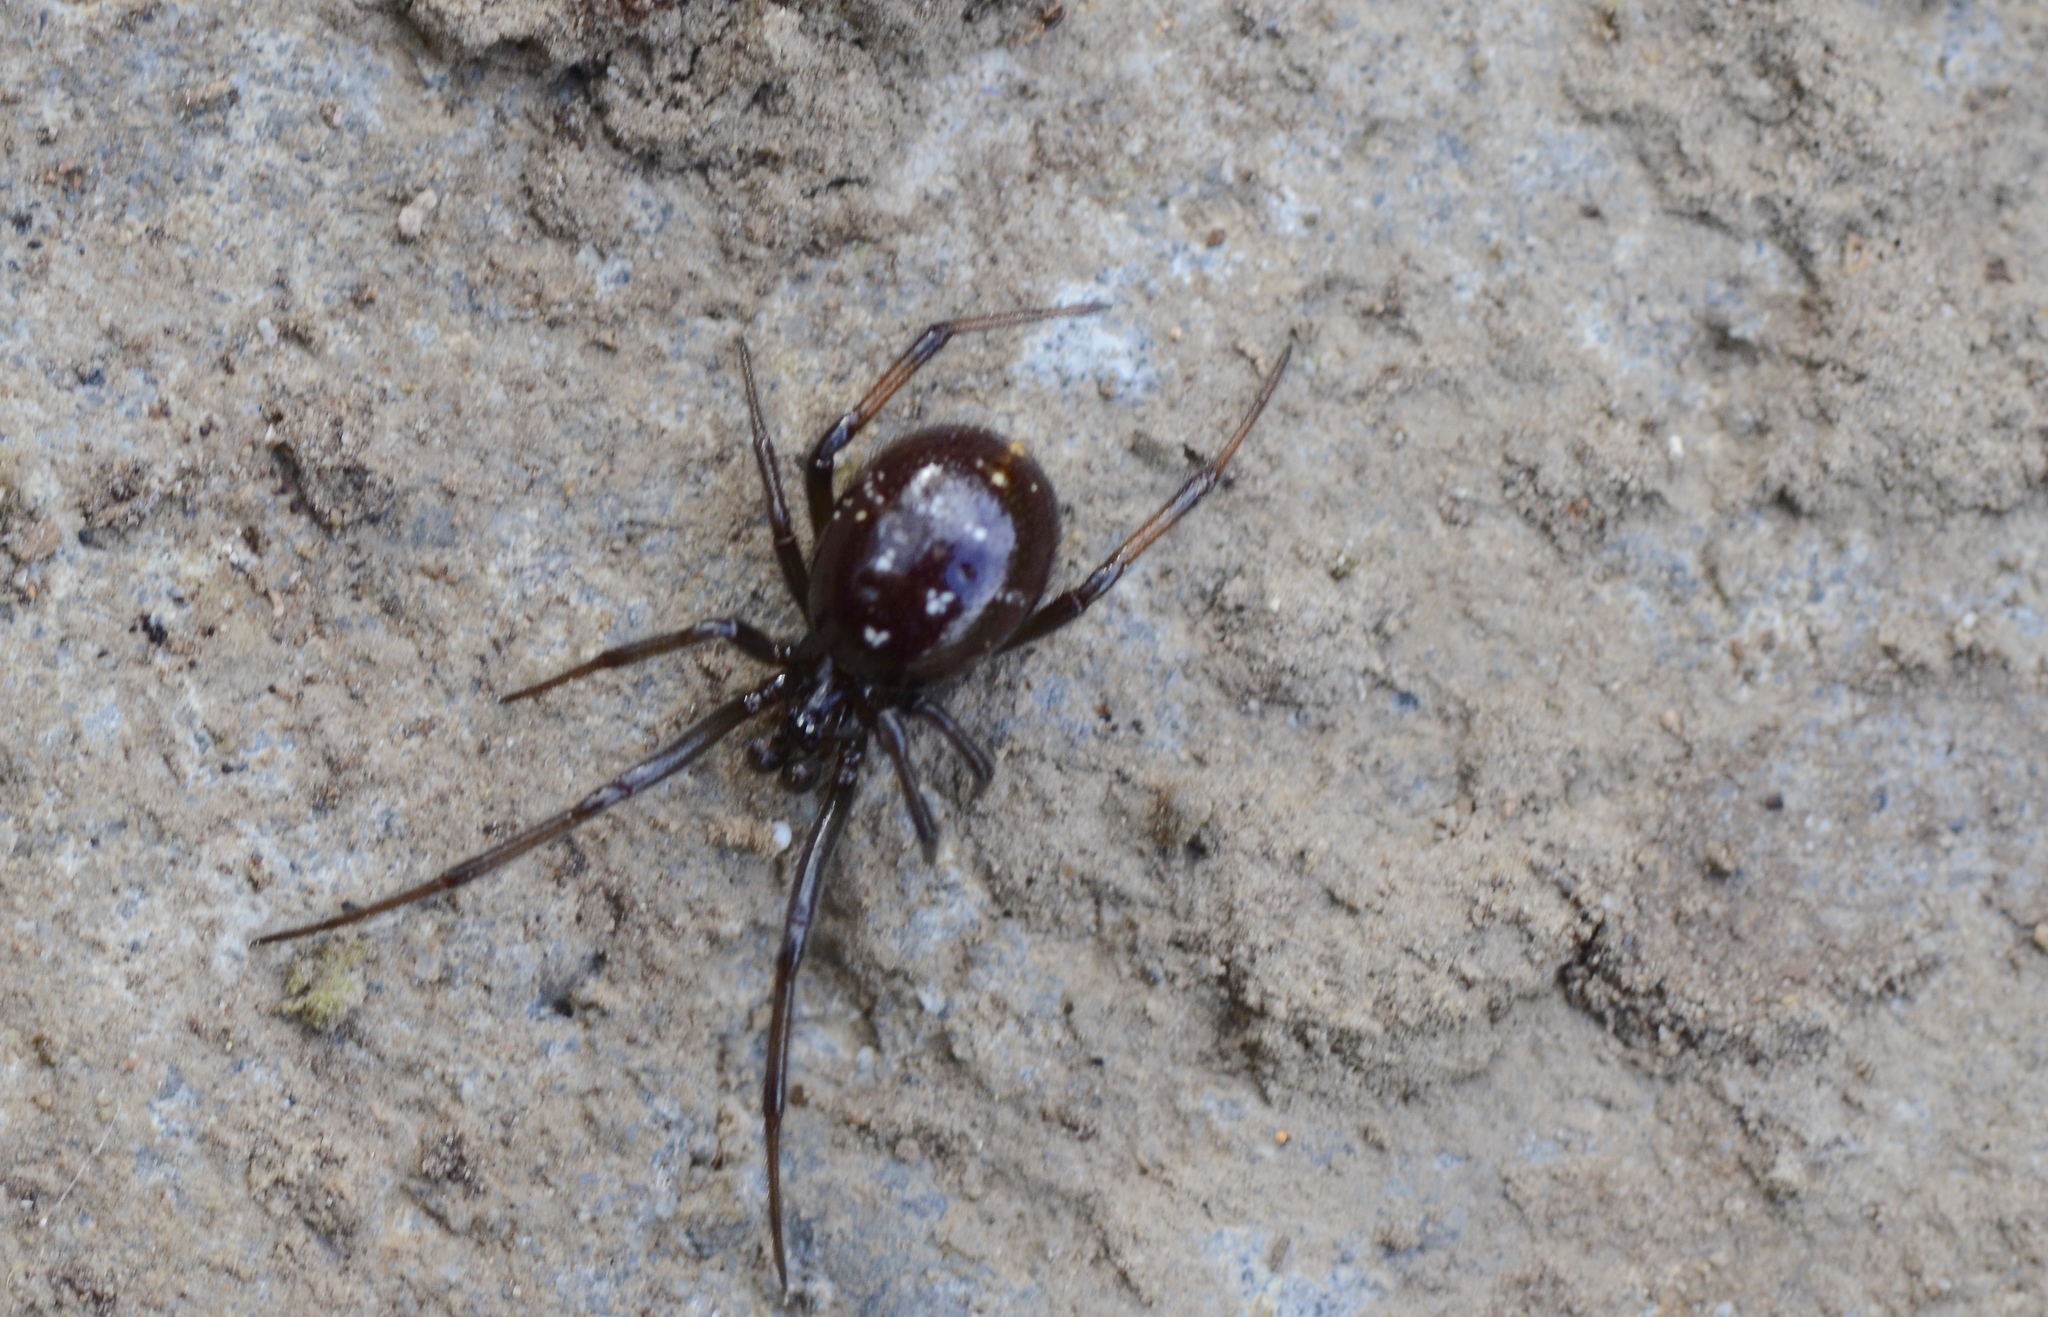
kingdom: Animalia
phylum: Arthropoda
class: Arachnida
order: Araneae
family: Theridiidae
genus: Steatoda
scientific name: Steatoda capensis
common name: Cobweb weaver
